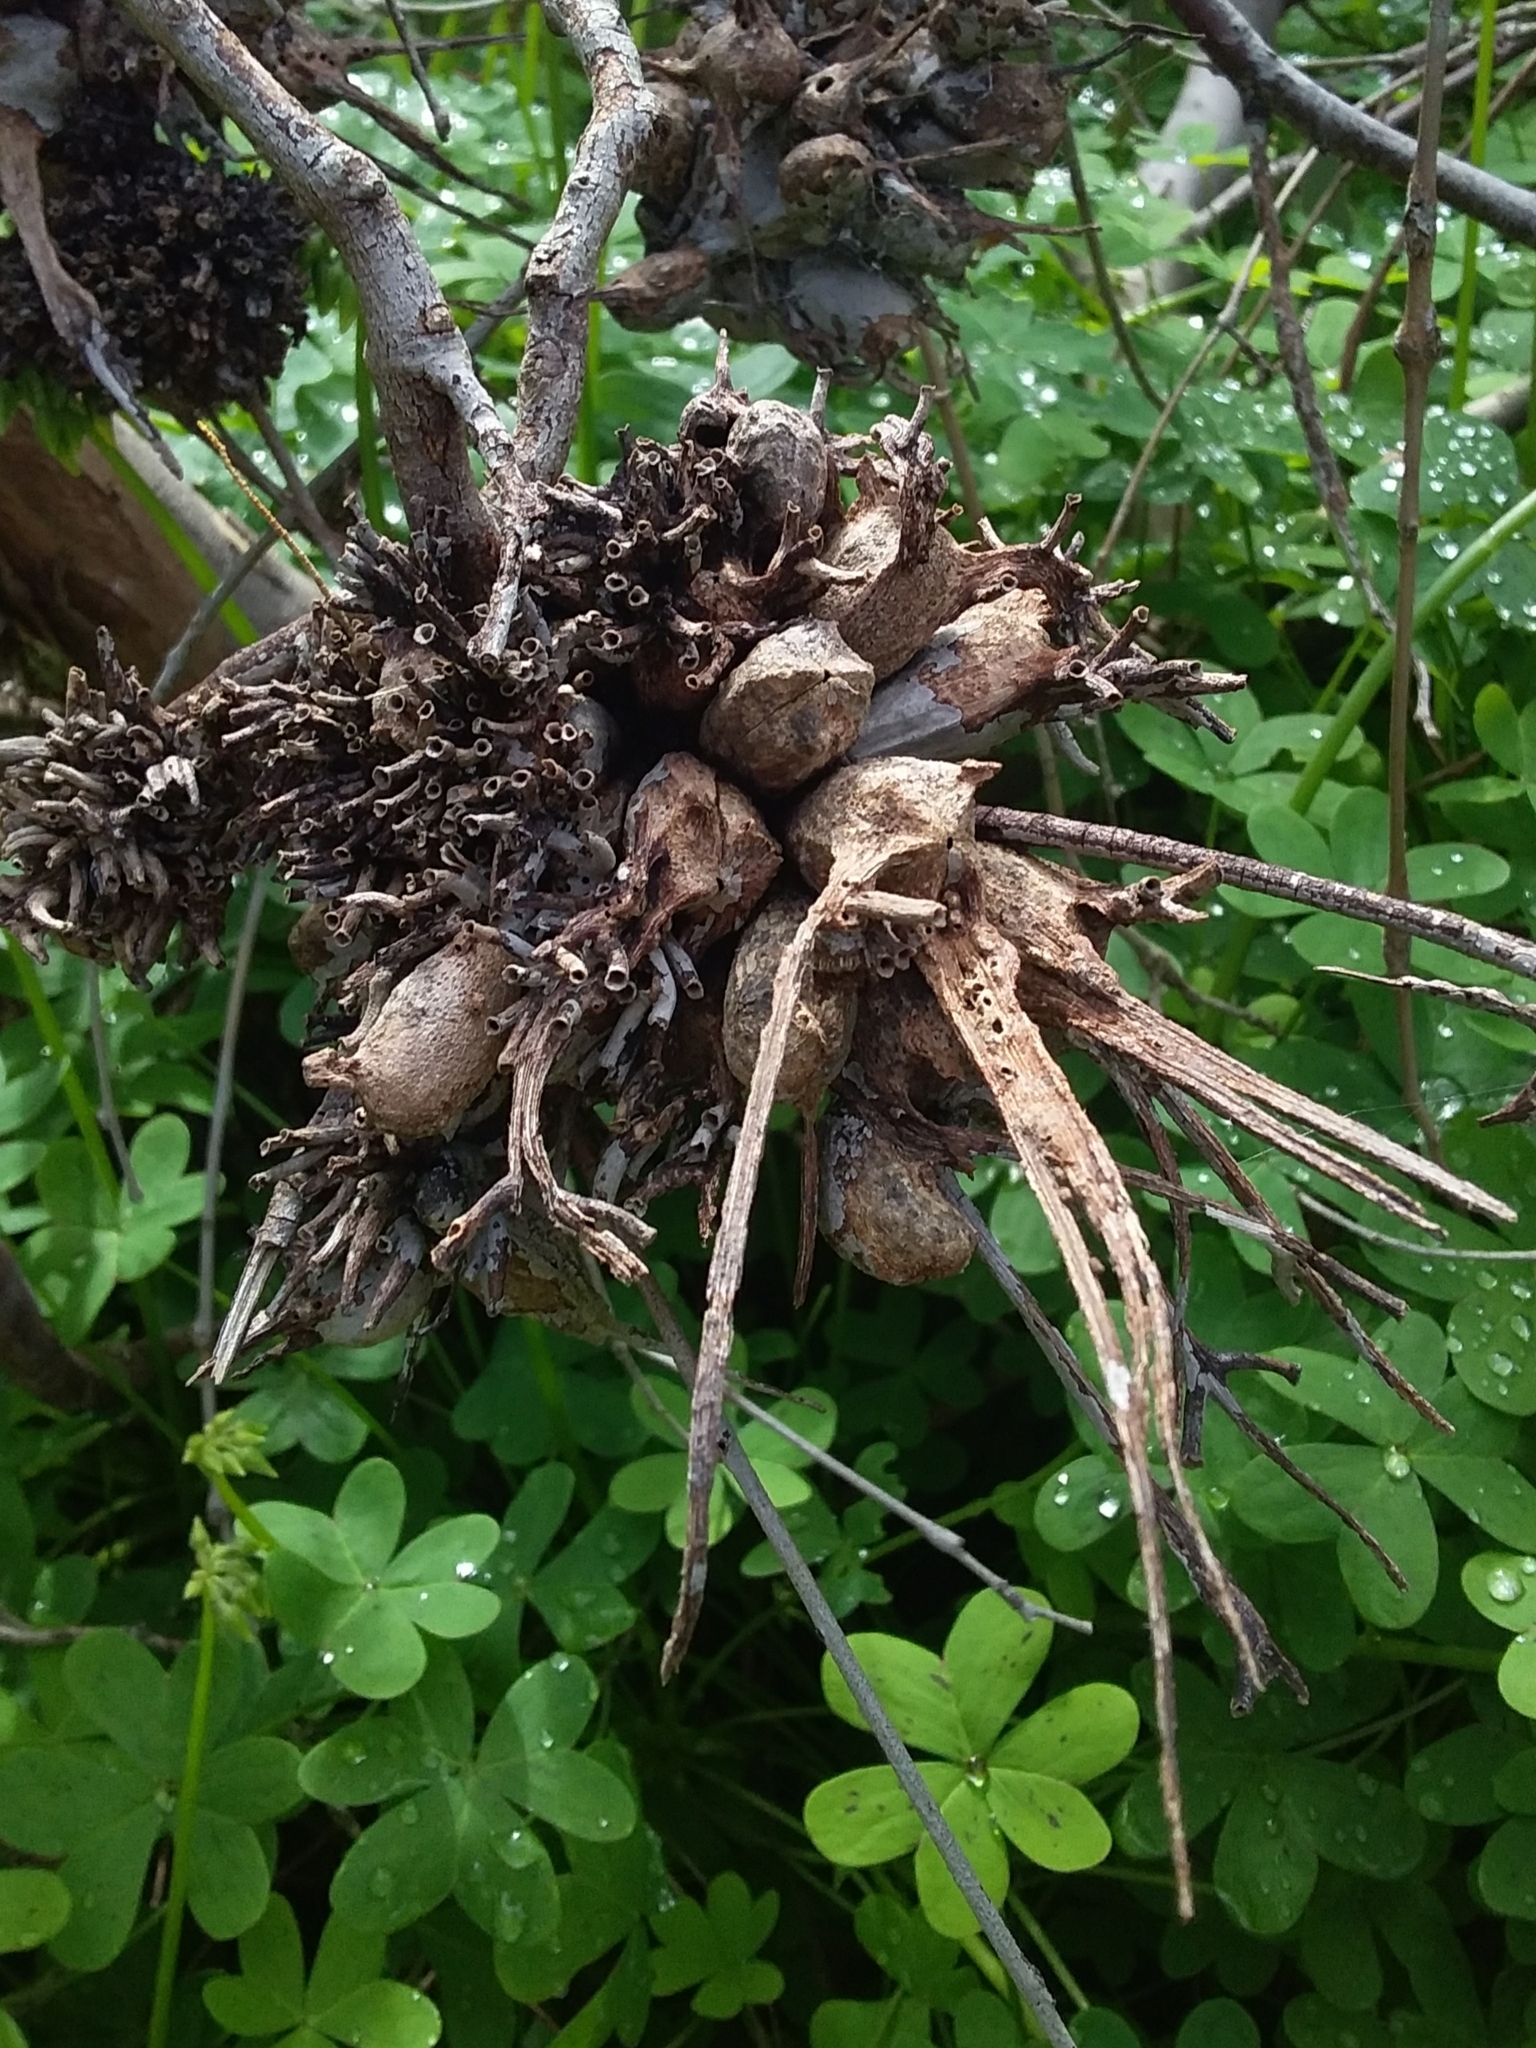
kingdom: Animalia
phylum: Arthropoda
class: Insecta
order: Hemiptera
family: Eriococcidae
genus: Apiomorpha
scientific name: Apiomorpha munita
